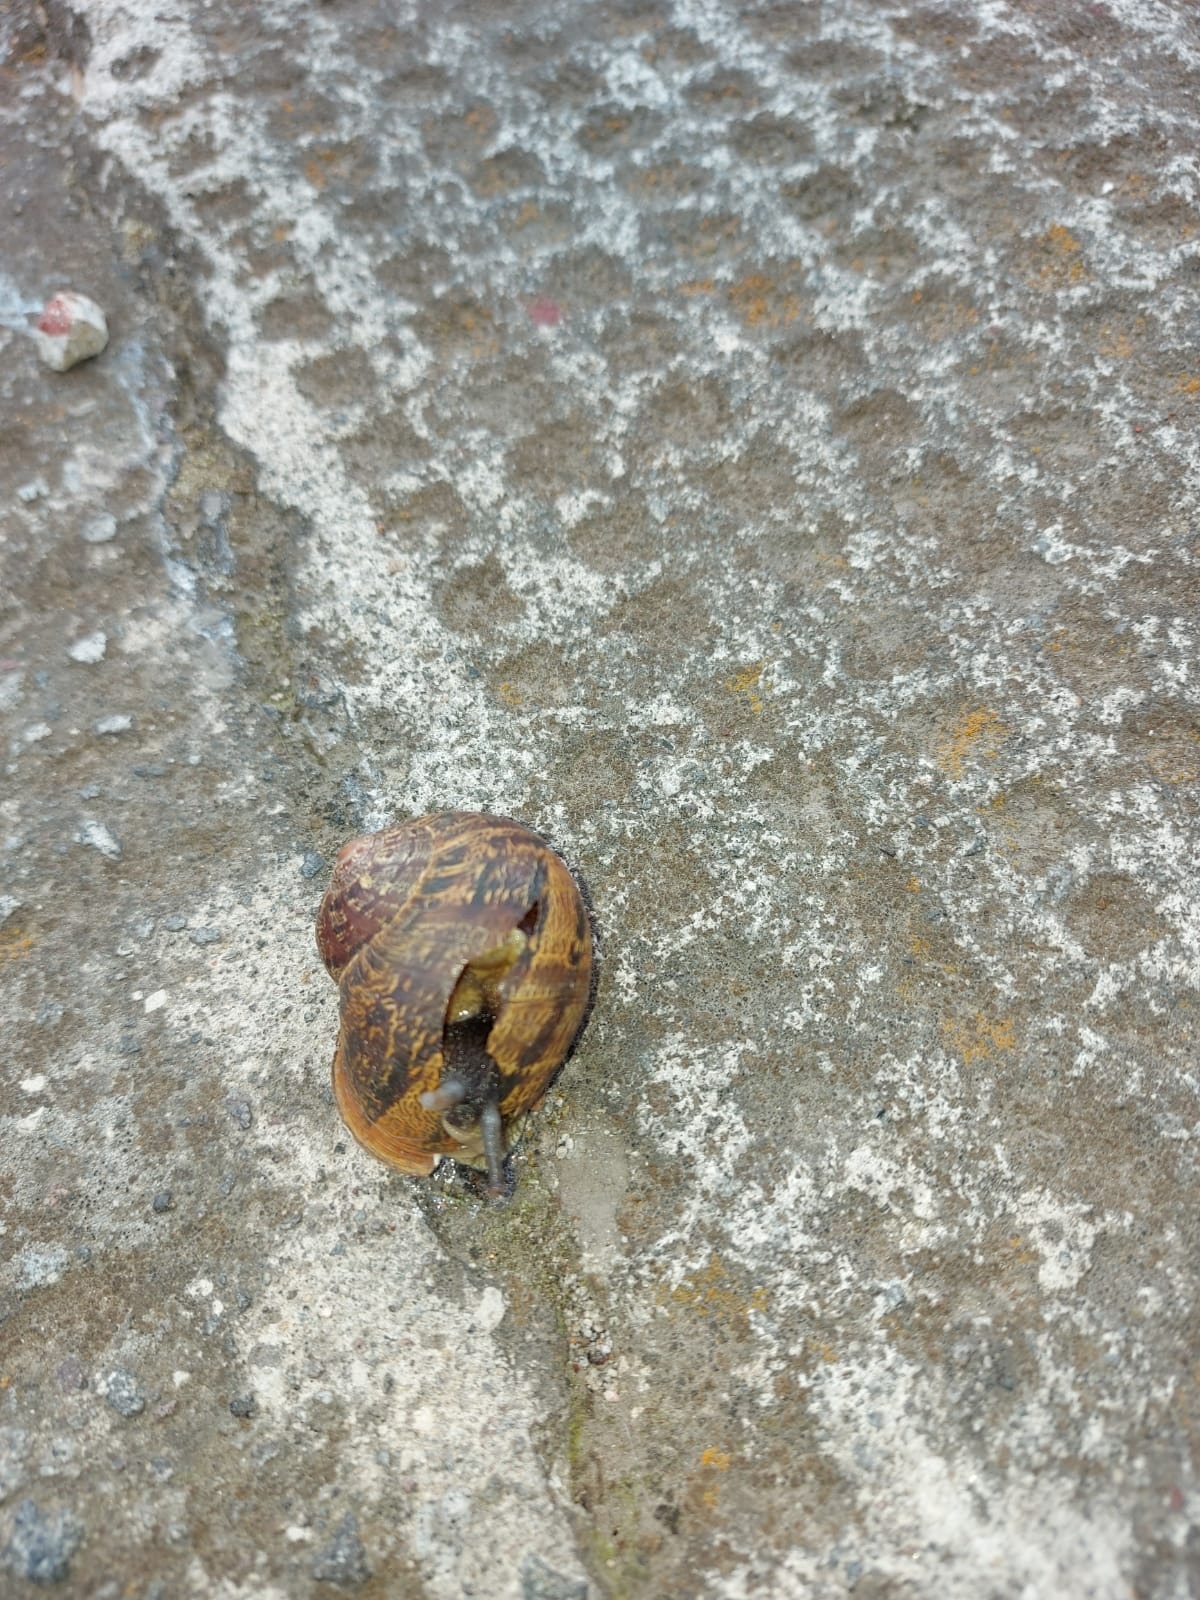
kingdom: Animalia
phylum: Mollusca
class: Gastropoda
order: Stylommatophora
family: Helicidae
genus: Cornu
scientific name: Cornu aspersum
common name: Brown garden snail
